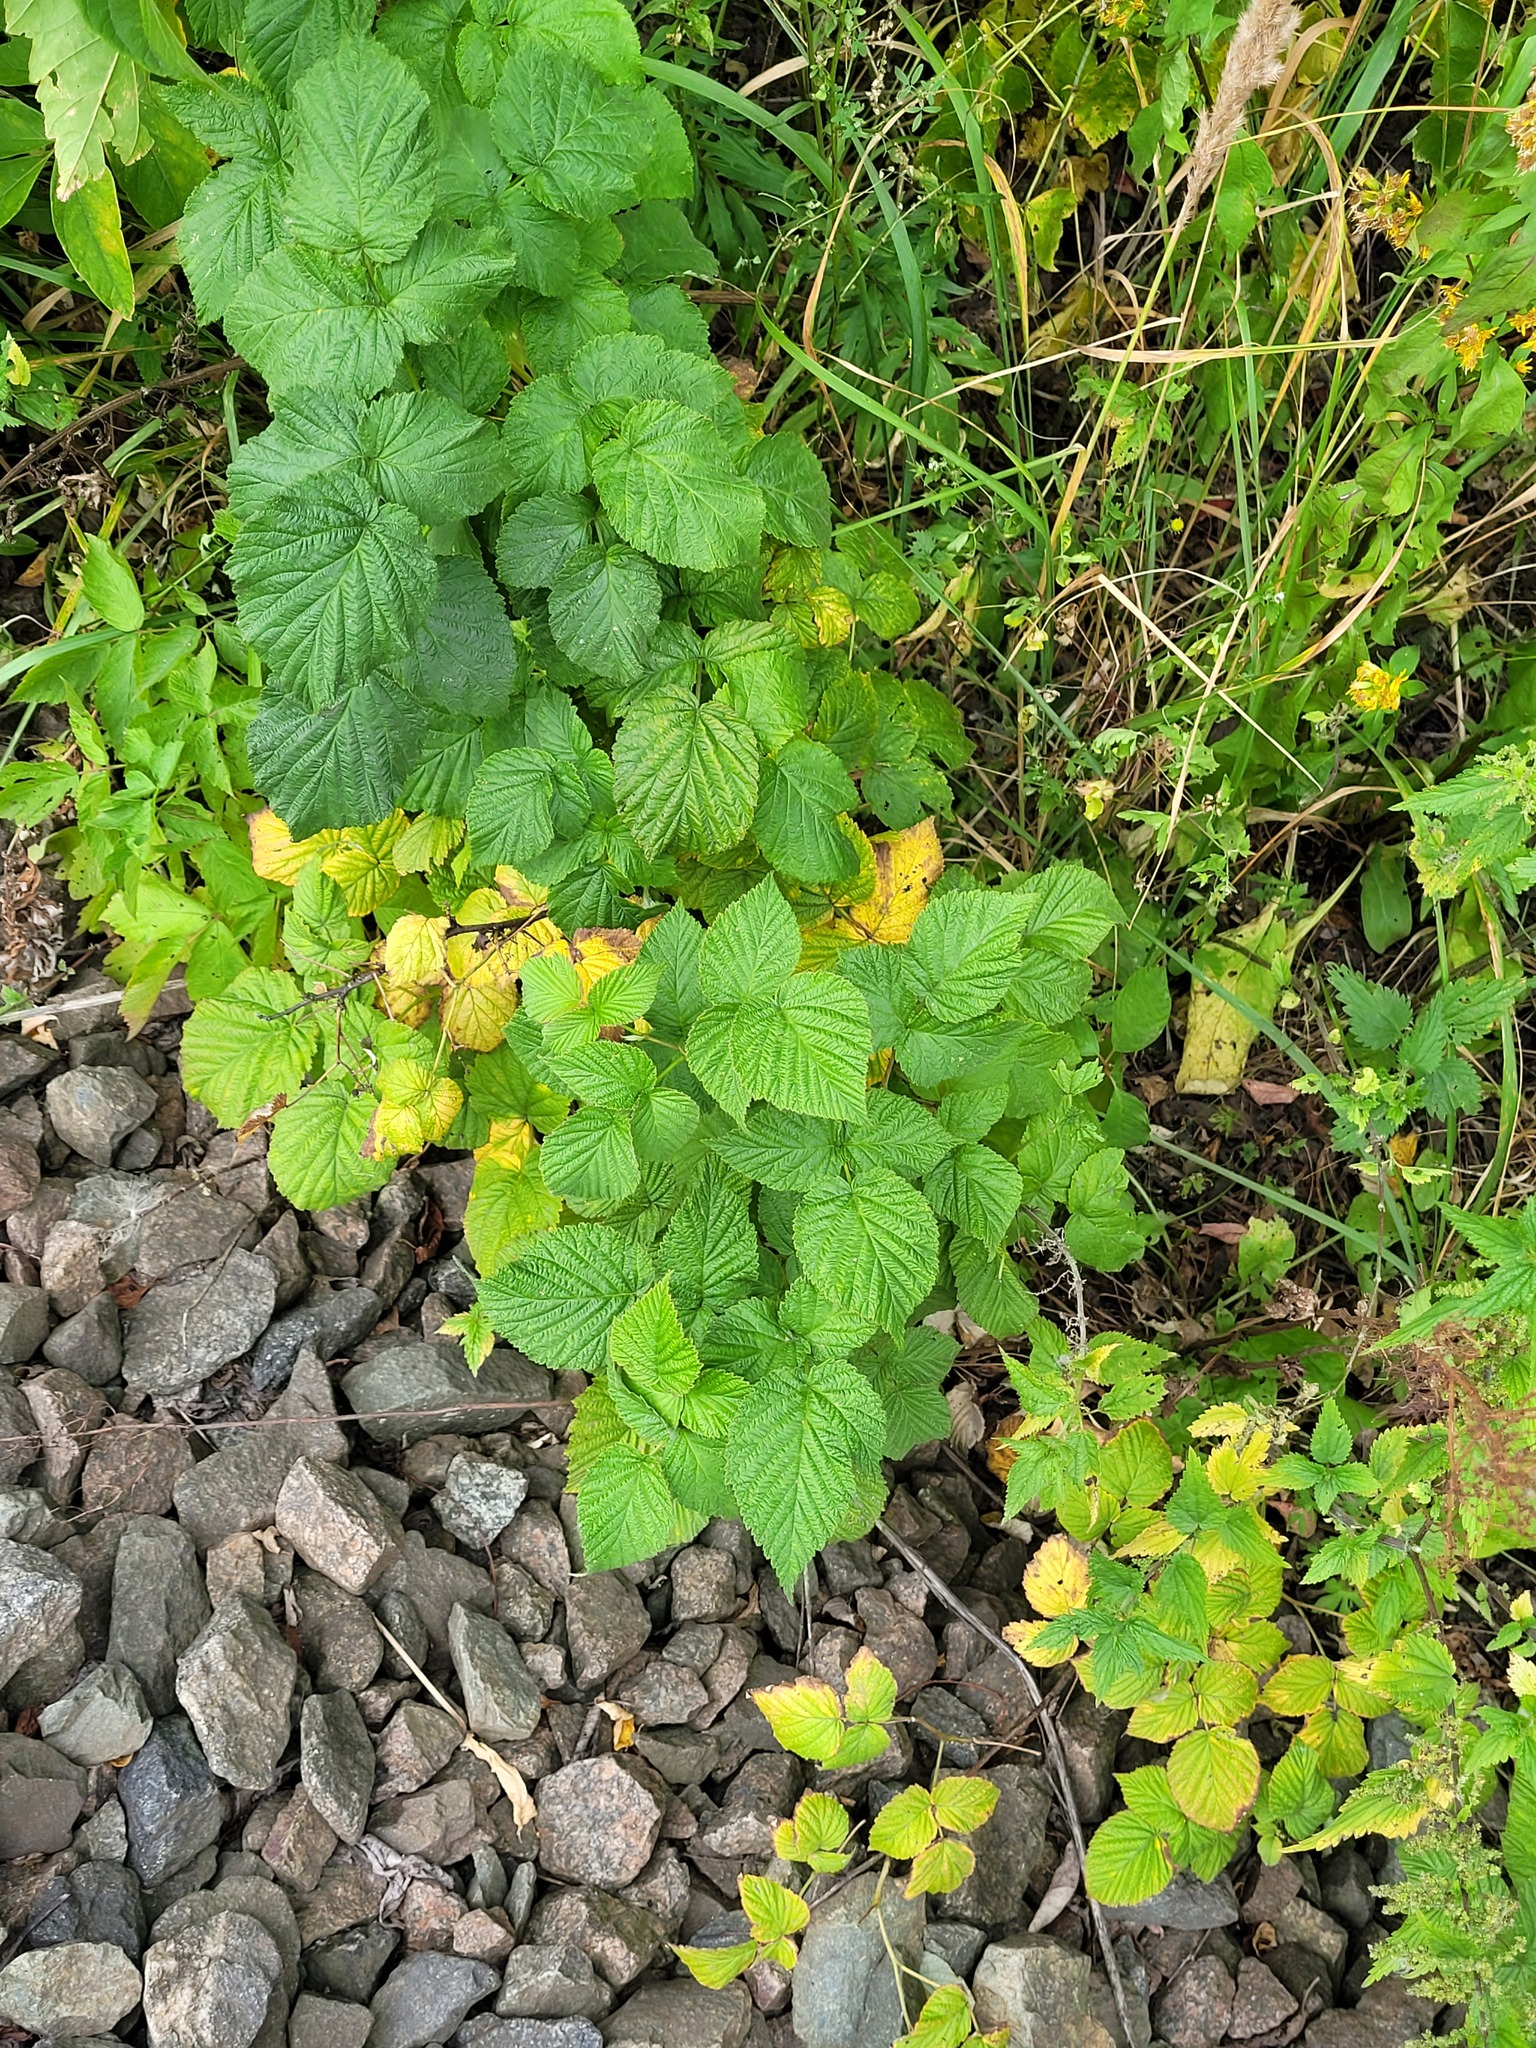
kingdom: Plantae
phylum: Tracheophyta
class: Magnoliopsida
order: Rosales
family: Rosaceae
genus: Rubus
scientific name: Rubus idaeus
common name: Raspberry
